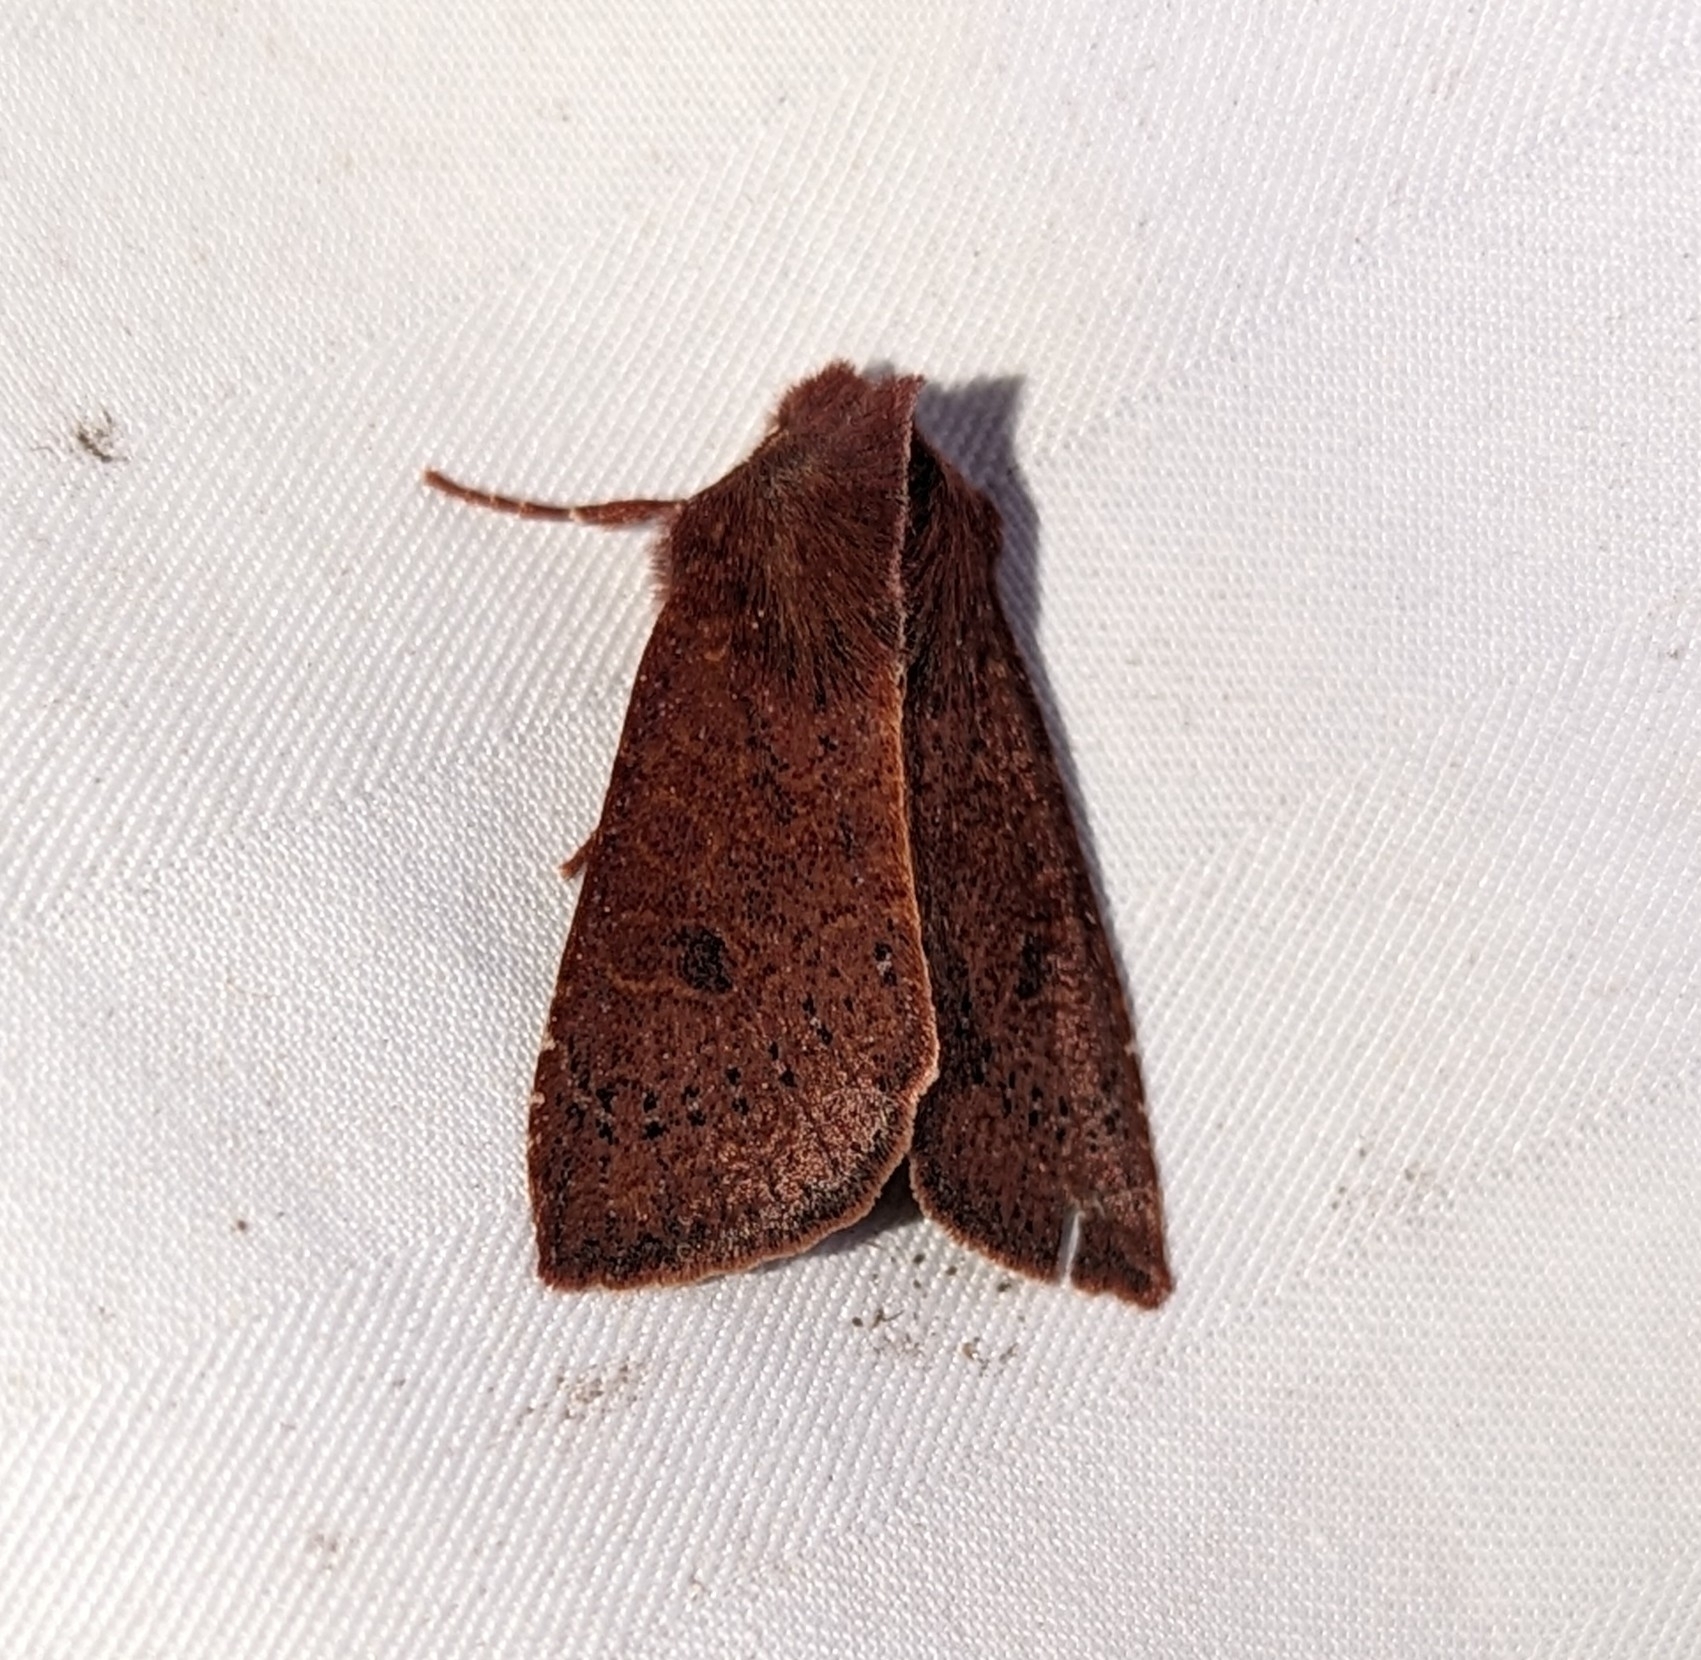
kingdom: Animalia
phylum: Arthropoda
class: Insecta
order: Lepidoptera
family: Noctuidae
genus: Orthosia
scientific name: Orthosia transparens
